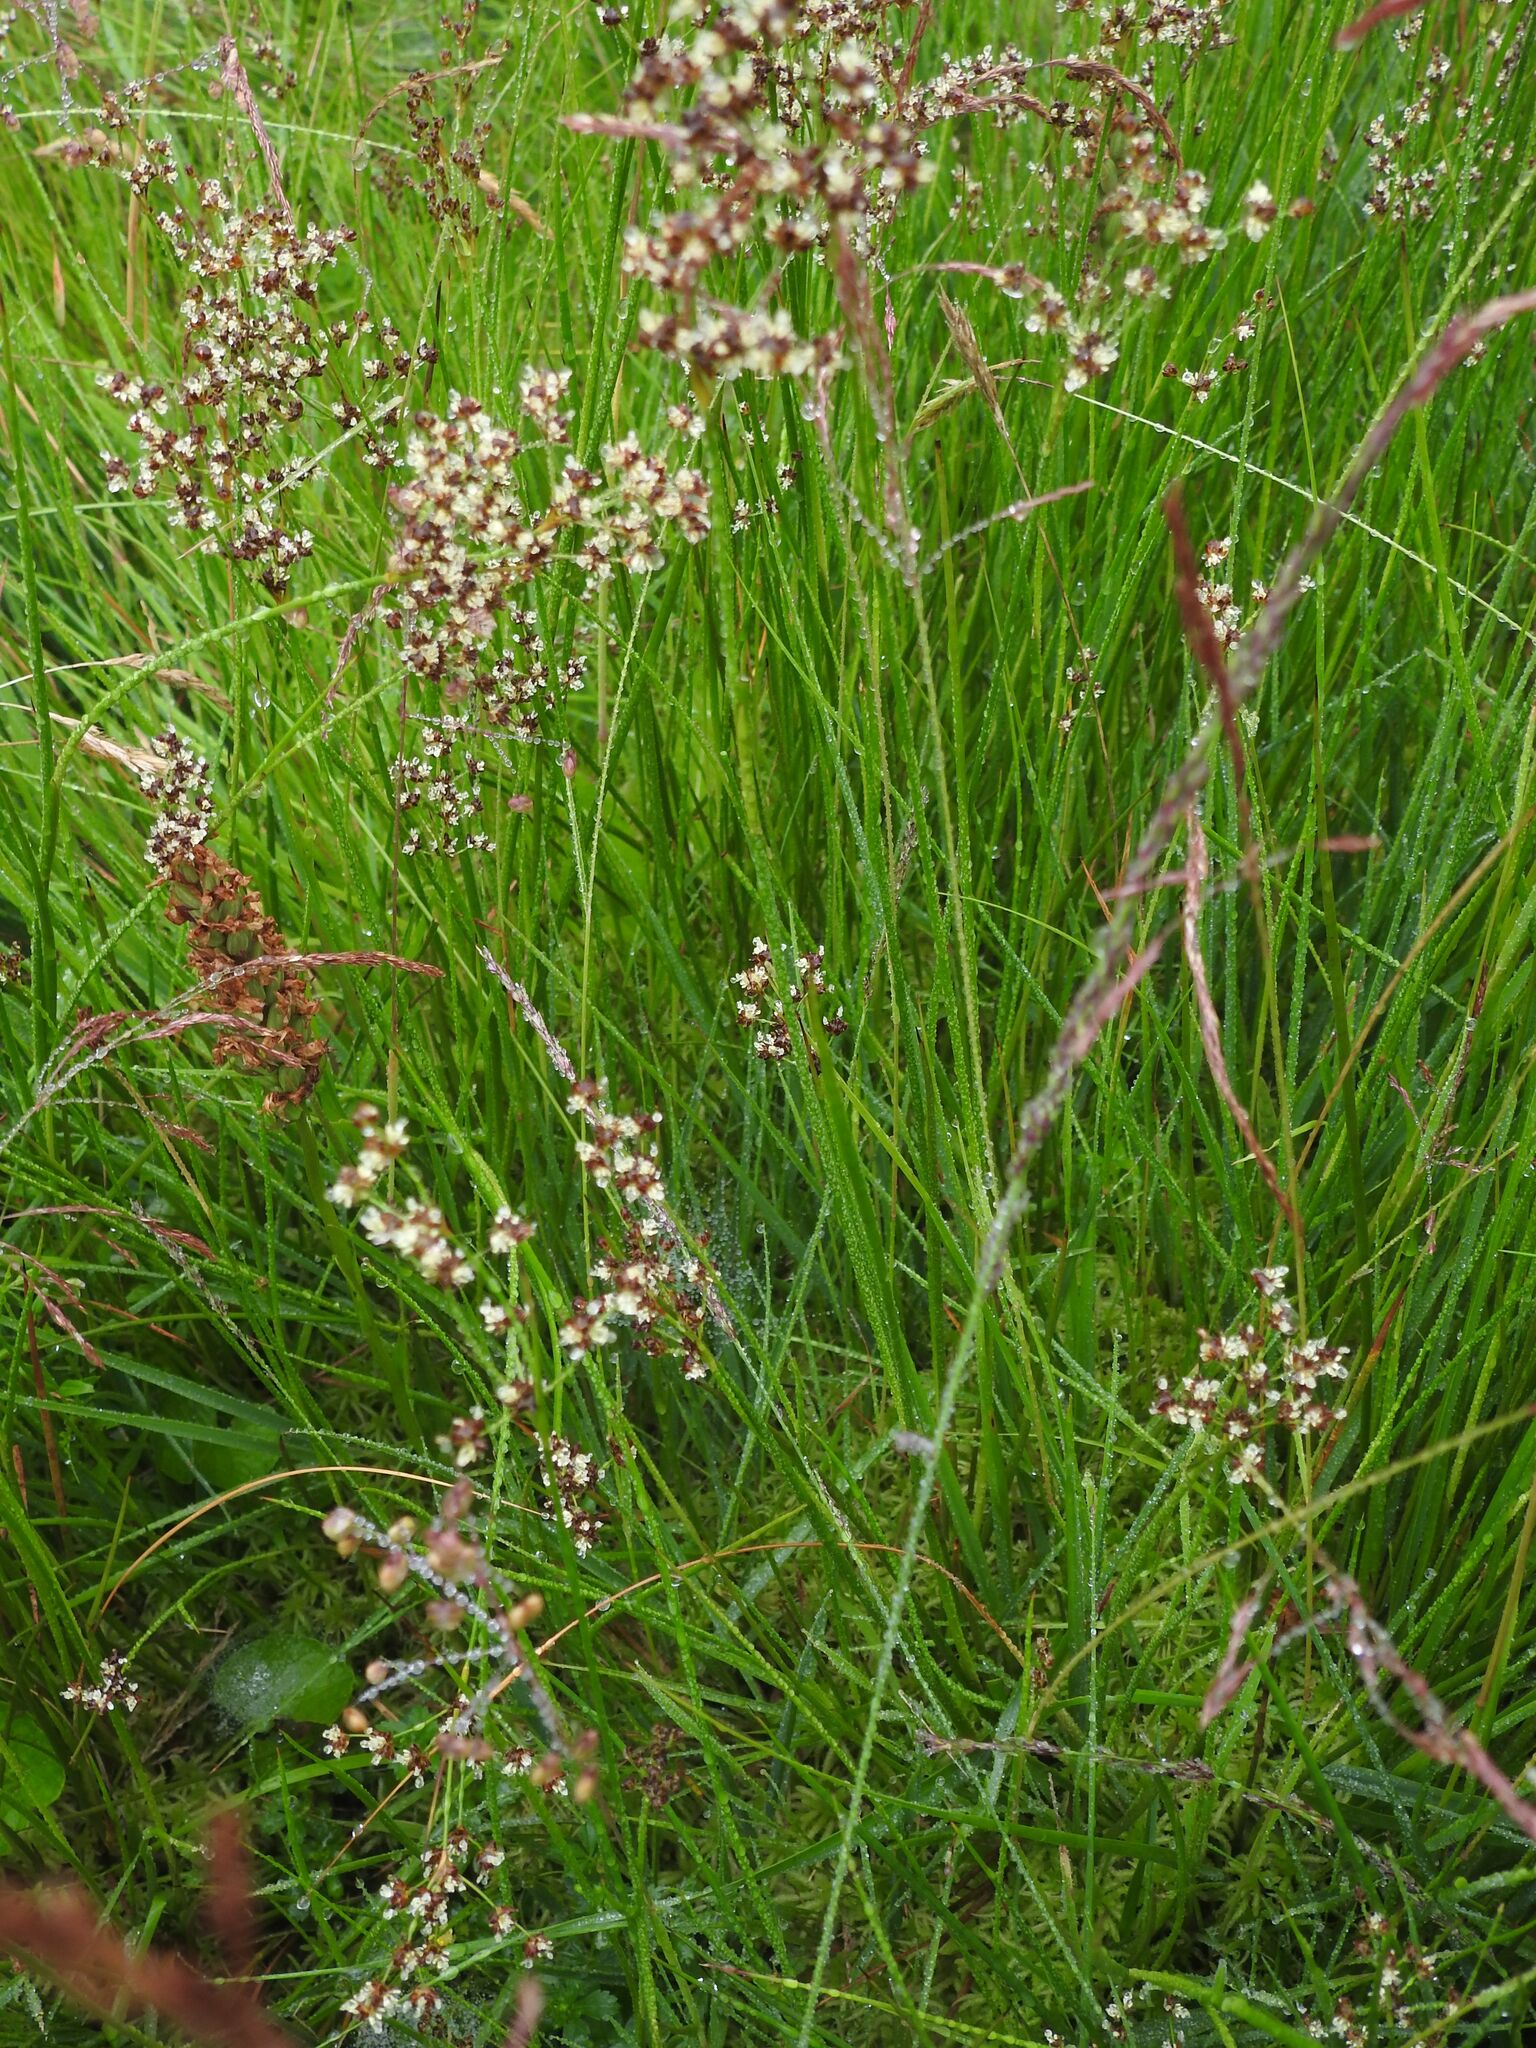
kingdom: Plantae
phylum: Tracheophyta
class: Liliopsida
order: Poales
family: Juncaceae
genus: Juncus
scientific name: Juncus acutiflorus
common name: Sharp-flowered rush
